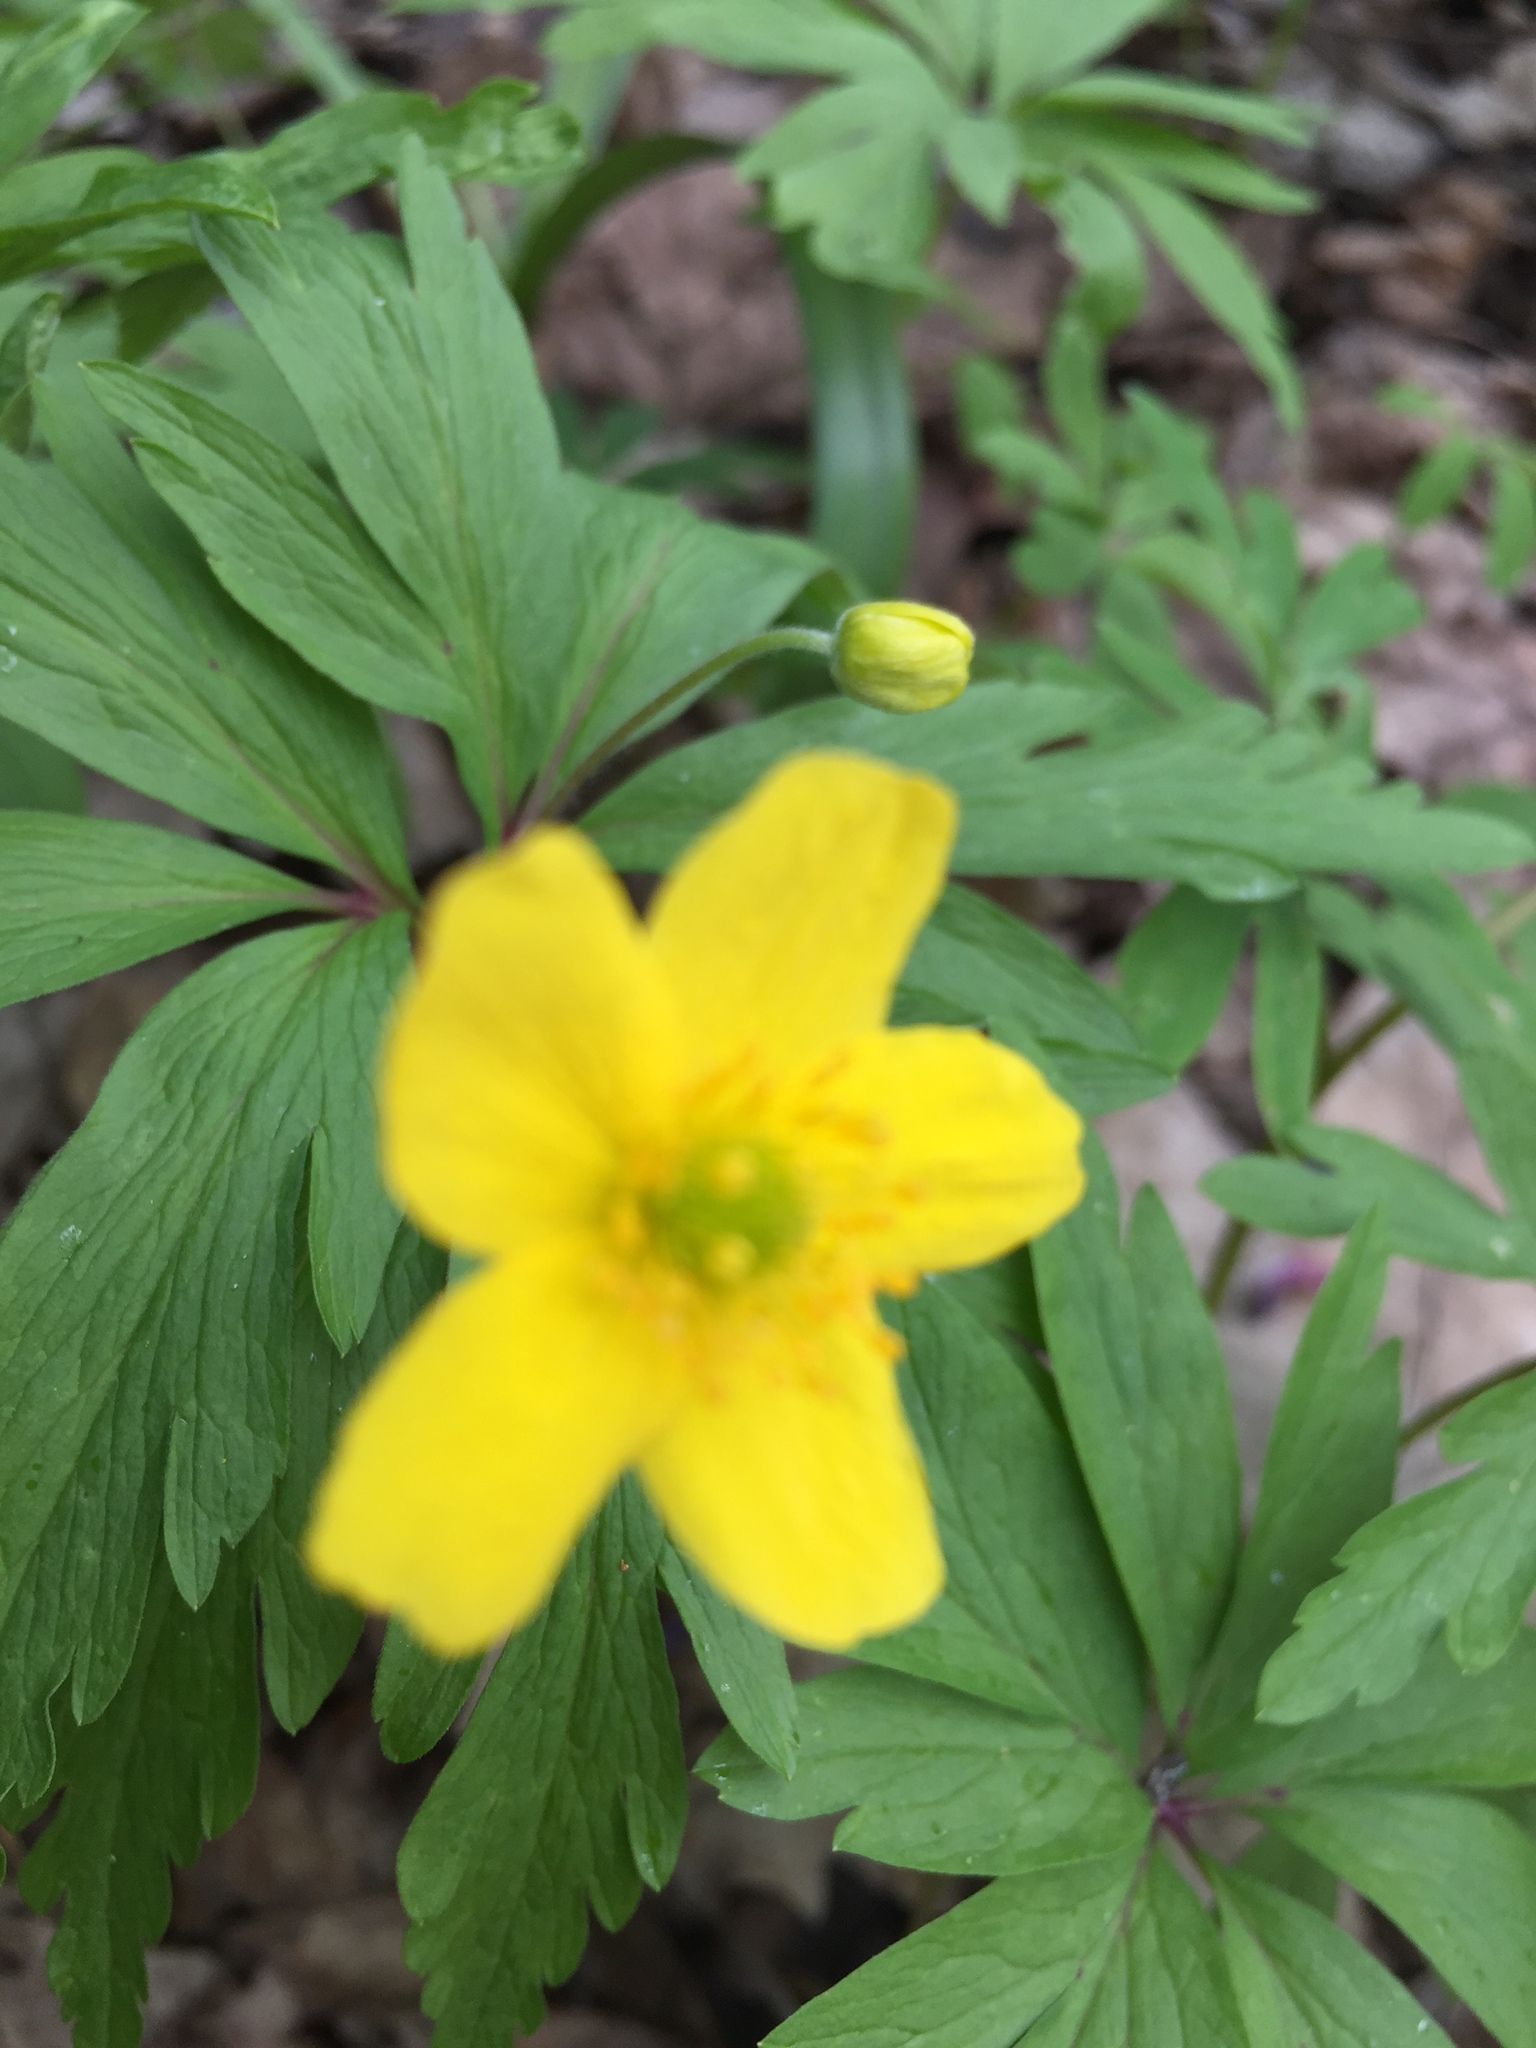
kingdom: Plantae
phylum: Tracheophyta
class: Magnoliopsida
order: Ranunculales
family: Ranunculaceae
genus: Anemone
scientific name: Anemone ranunculoides
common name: Yellow anemone
